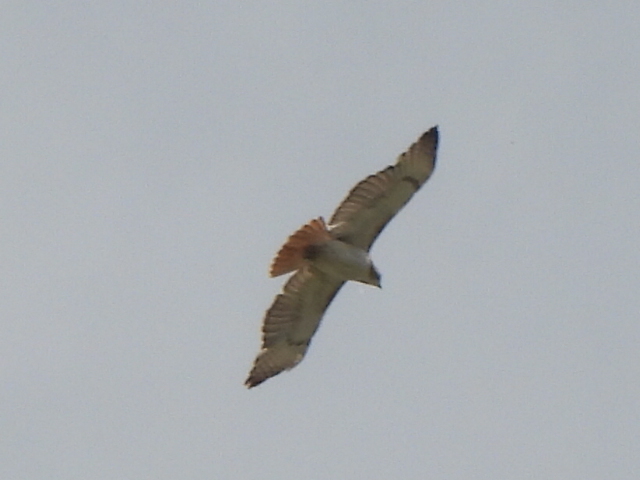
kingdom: Animalia
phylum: Chordata
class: Aves
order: Accipitriformes
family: Accipitridae
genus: Buteo
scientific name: Buteo jamaicensis
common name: Red-tailed hawk
